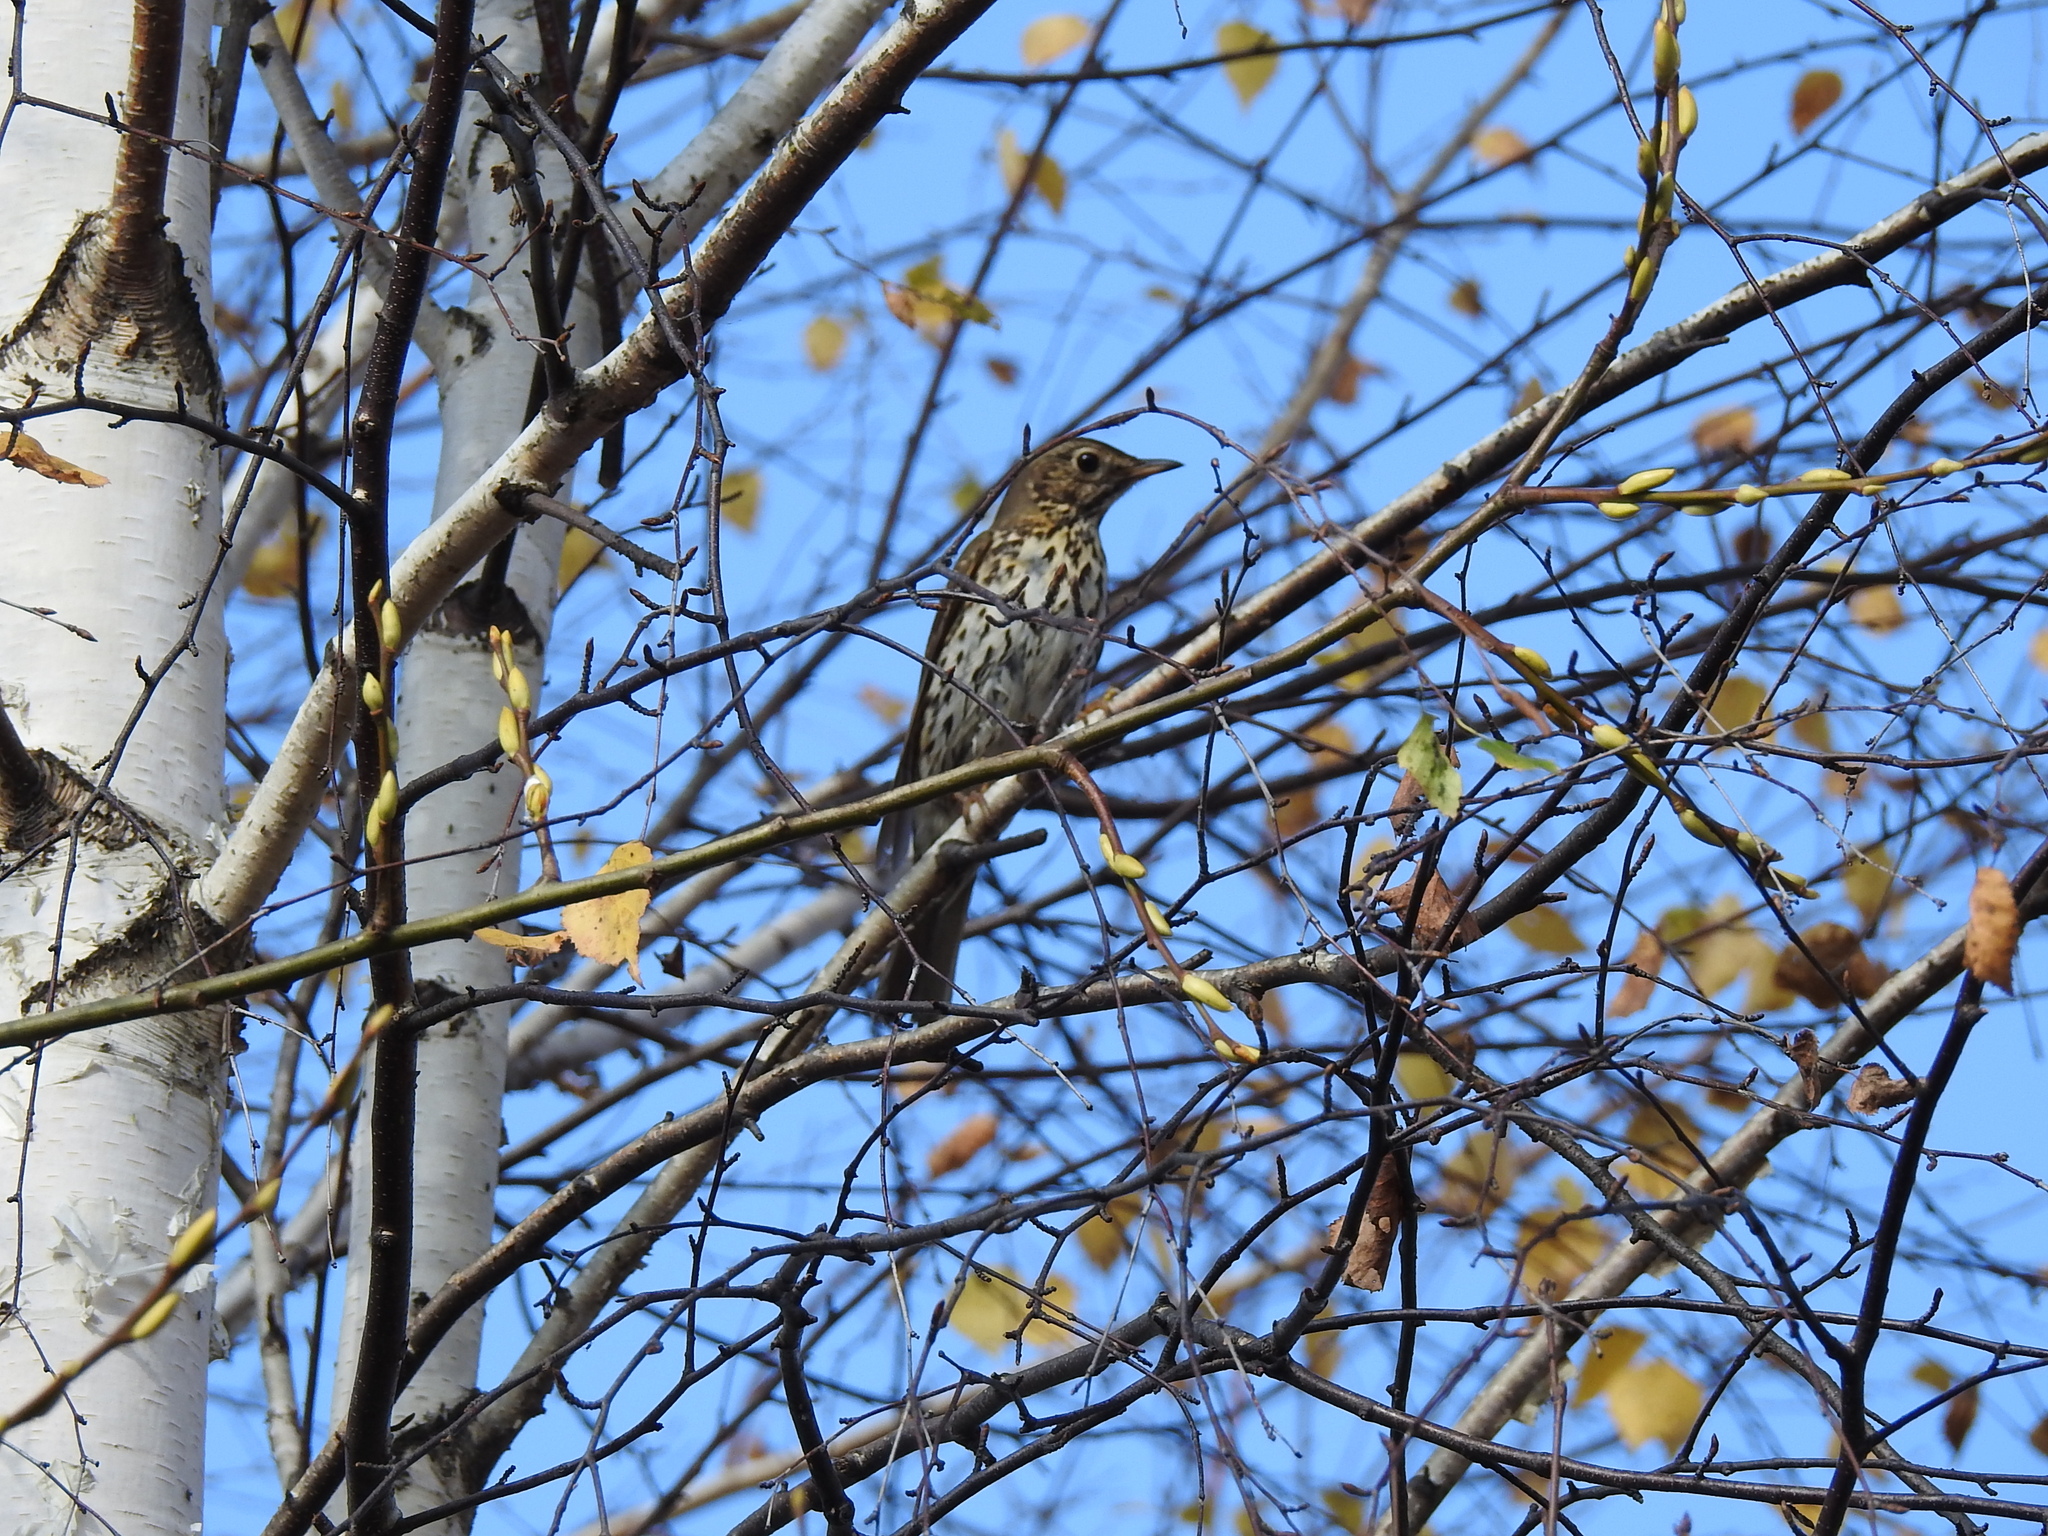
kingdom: Animalia
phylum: Chordata
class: Aves
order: Passeriformes
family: Turdidae
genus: Turdus
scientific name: Turdus philomelos
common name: Song thrush
